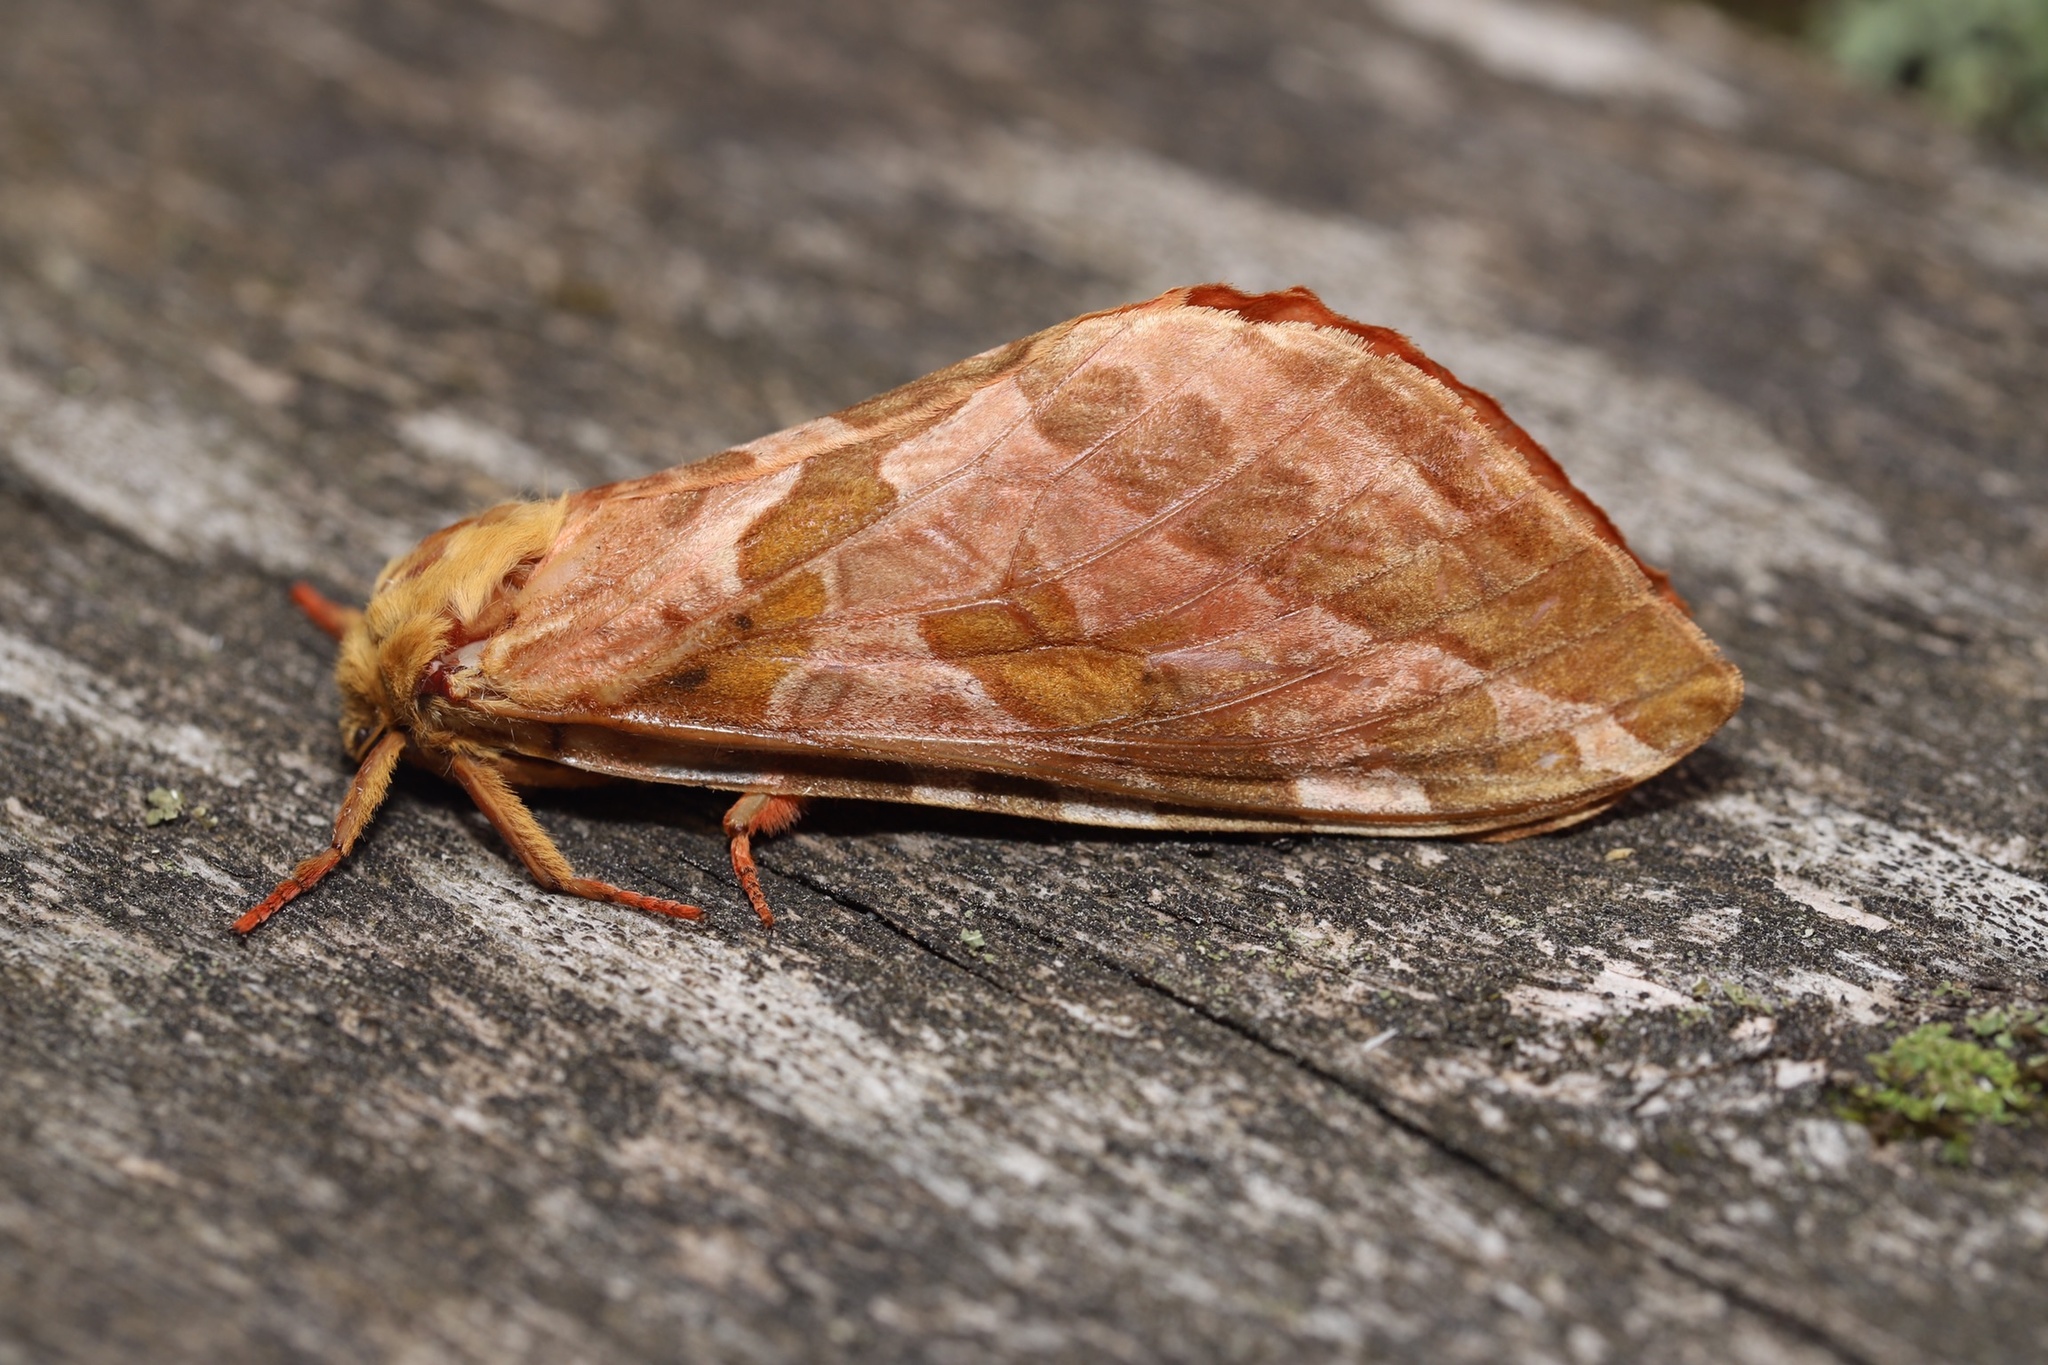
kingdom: Animalia
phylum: Arthropoda
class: Insecta
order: Lepidoptera
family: Hepialidae
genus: Sthenopis
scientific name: Sthenopis purpurascens
